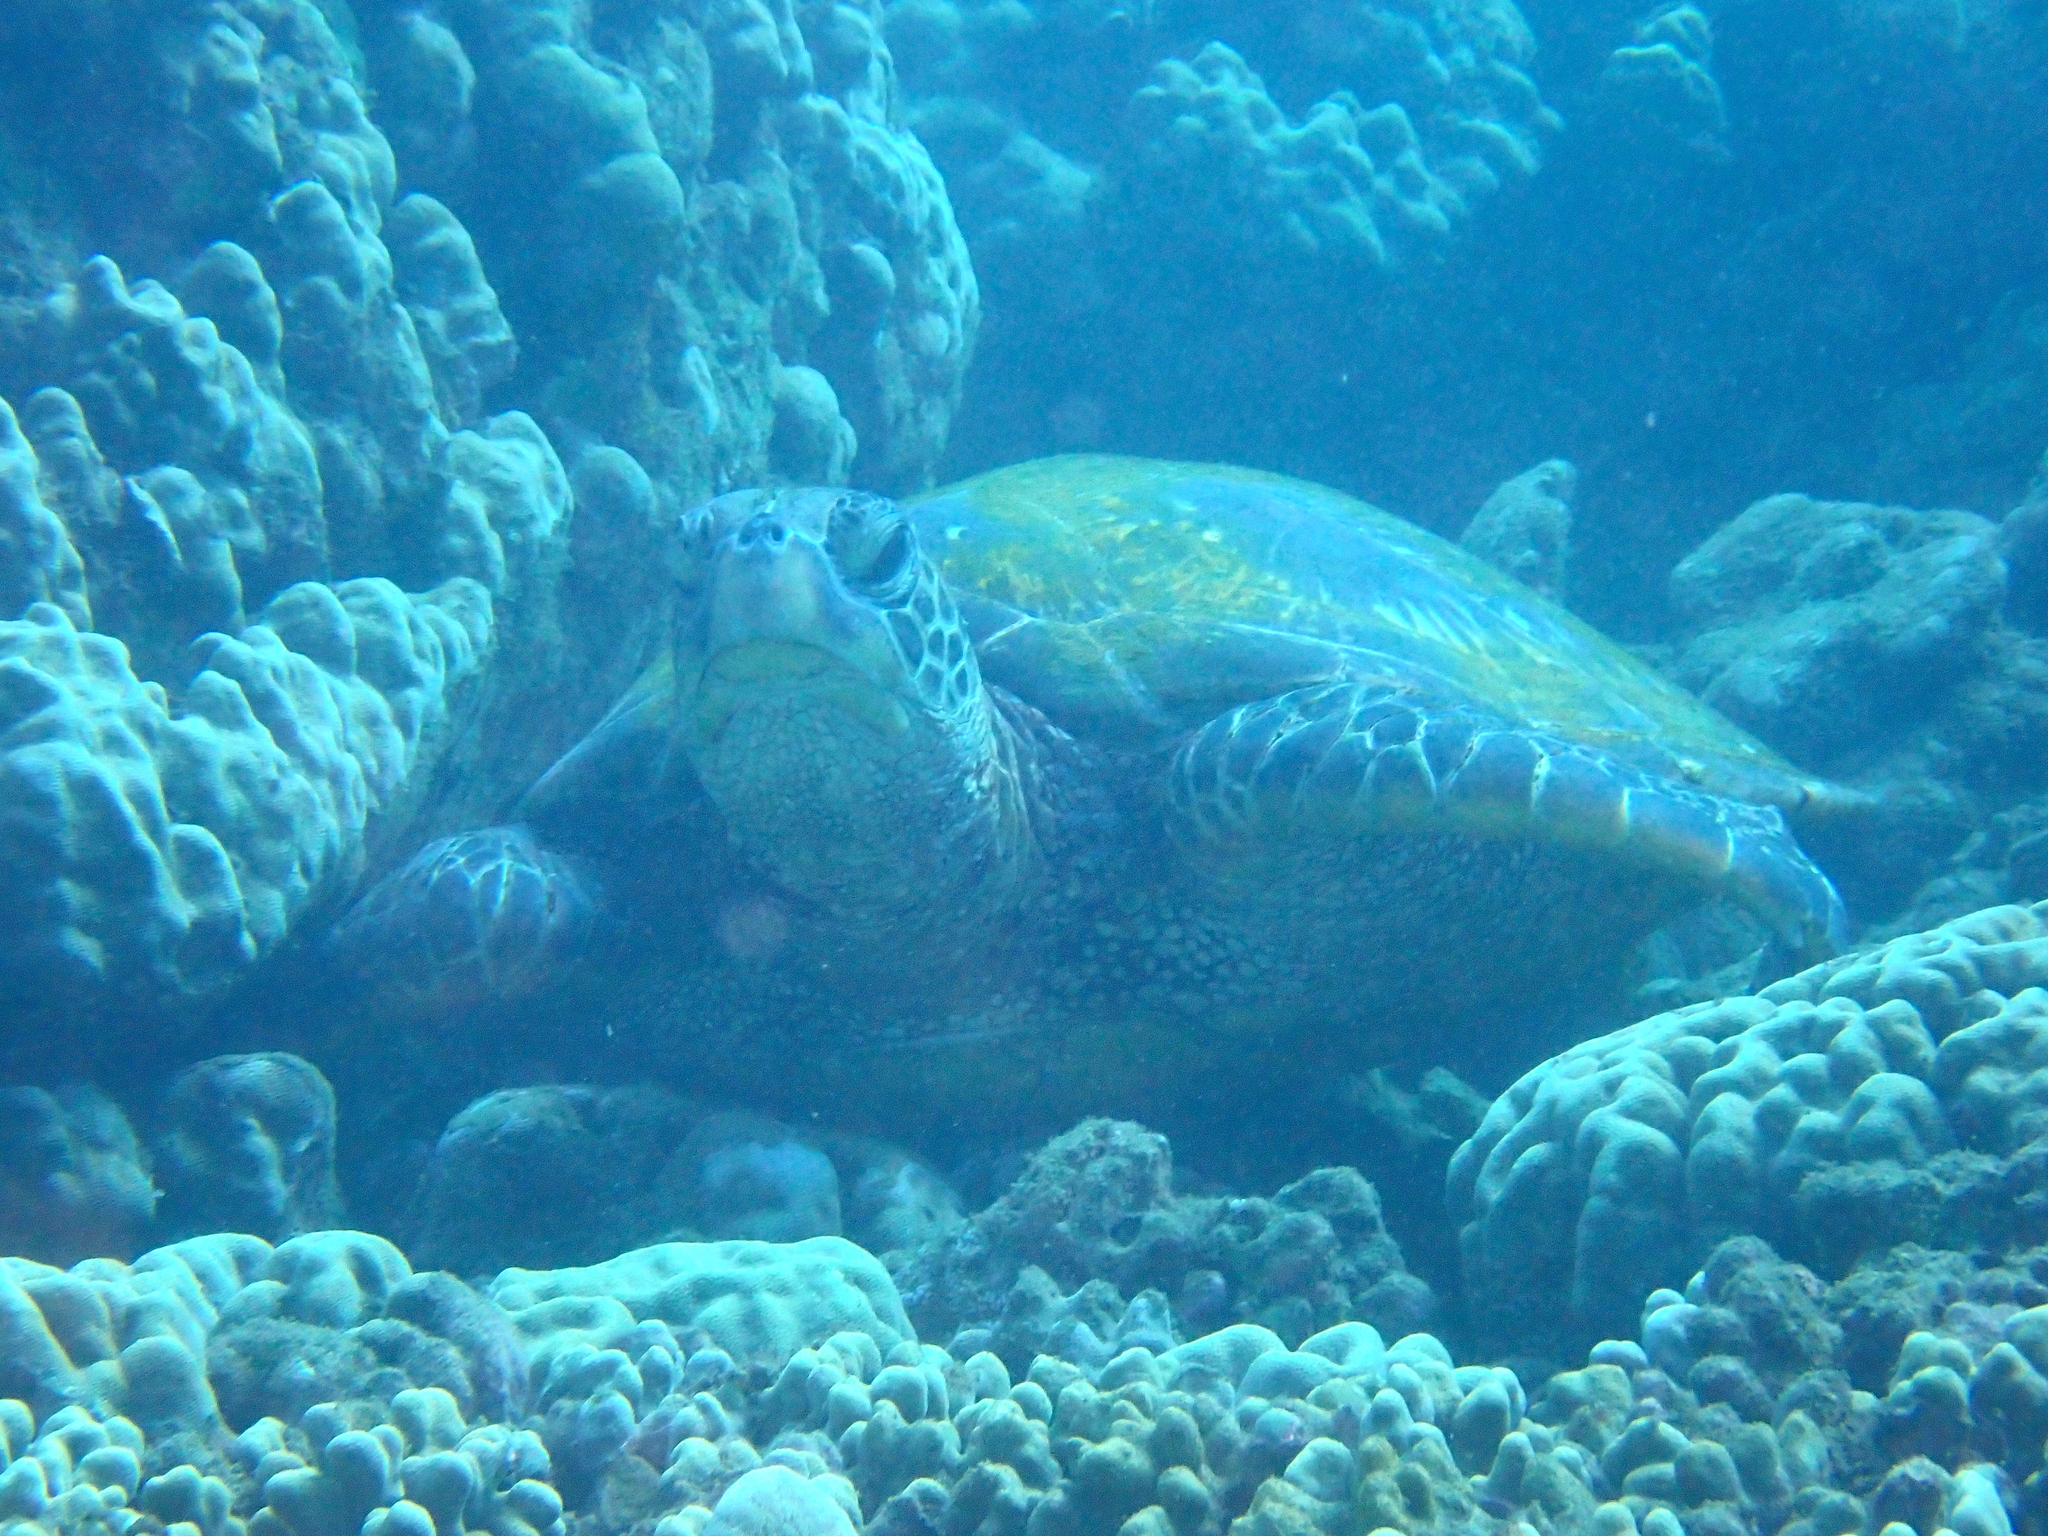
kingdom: Animalia
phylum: Chordata
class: Testudines
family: Cheloniidae
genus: Chelonia
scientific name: Chelonia mydas
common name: Green turtle
